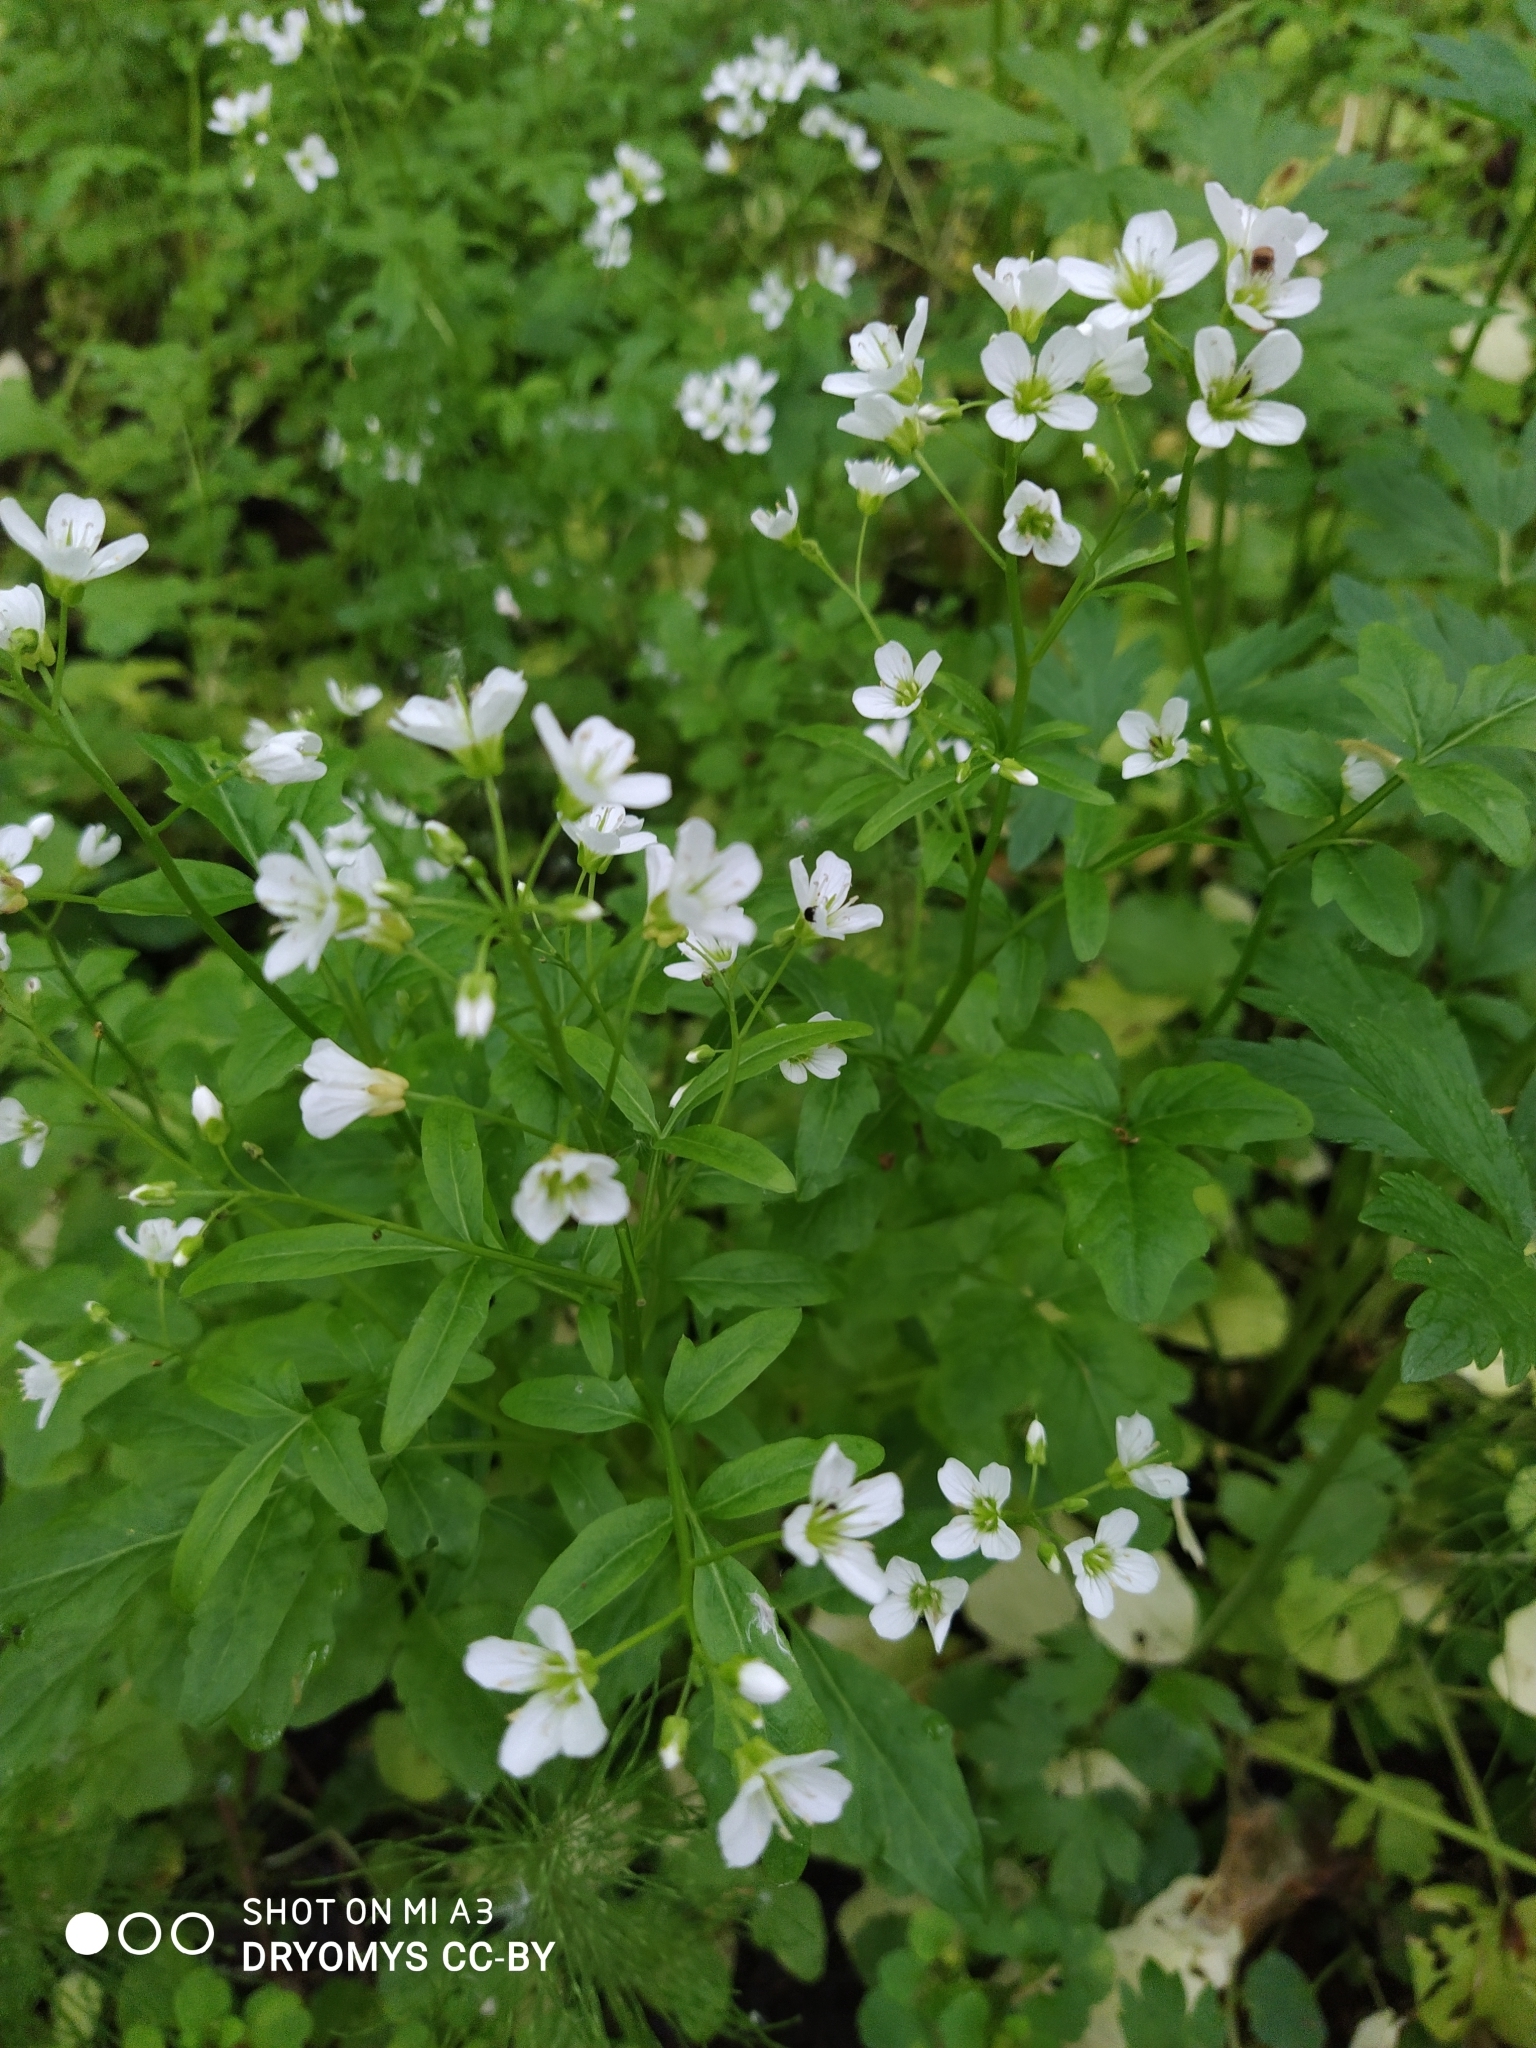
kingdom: Plantae
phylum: Tracheophyta
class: Magnoliopsida
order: Brassicales
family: Brassicaceae
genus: Cardamine
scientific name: Cardamine amara
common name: Large bitter-cress
